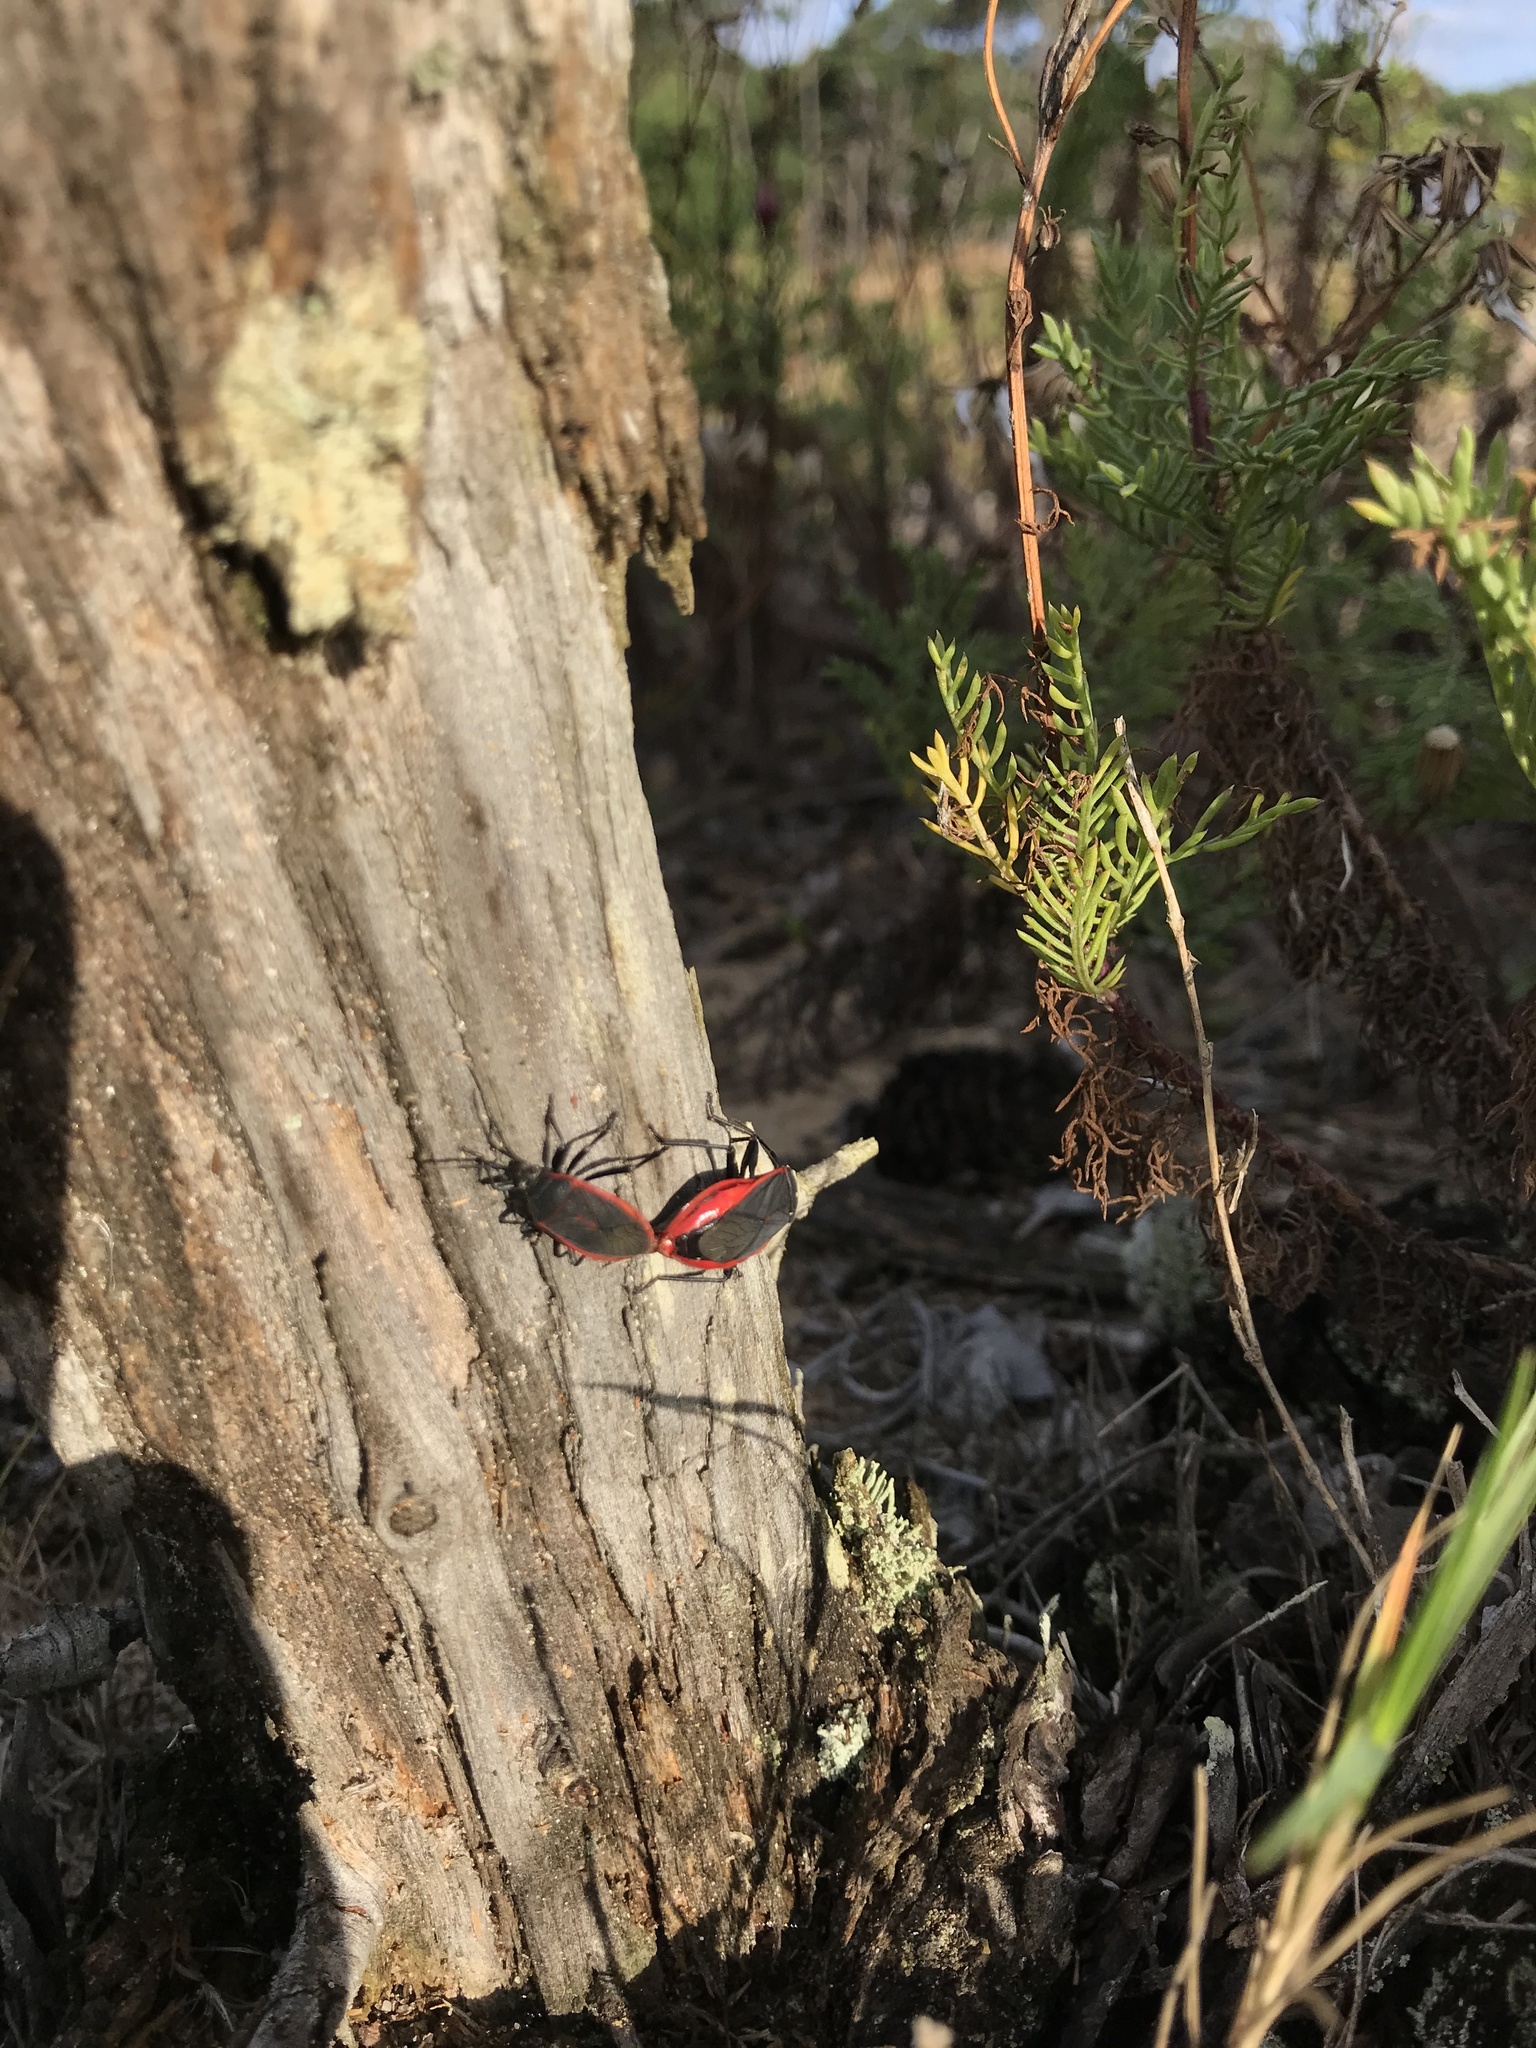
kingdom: Animalia
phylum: Arthropoda
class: Insecta
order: Hemiptera
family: Largidae
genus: Largus
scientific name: Largus rufipennis
